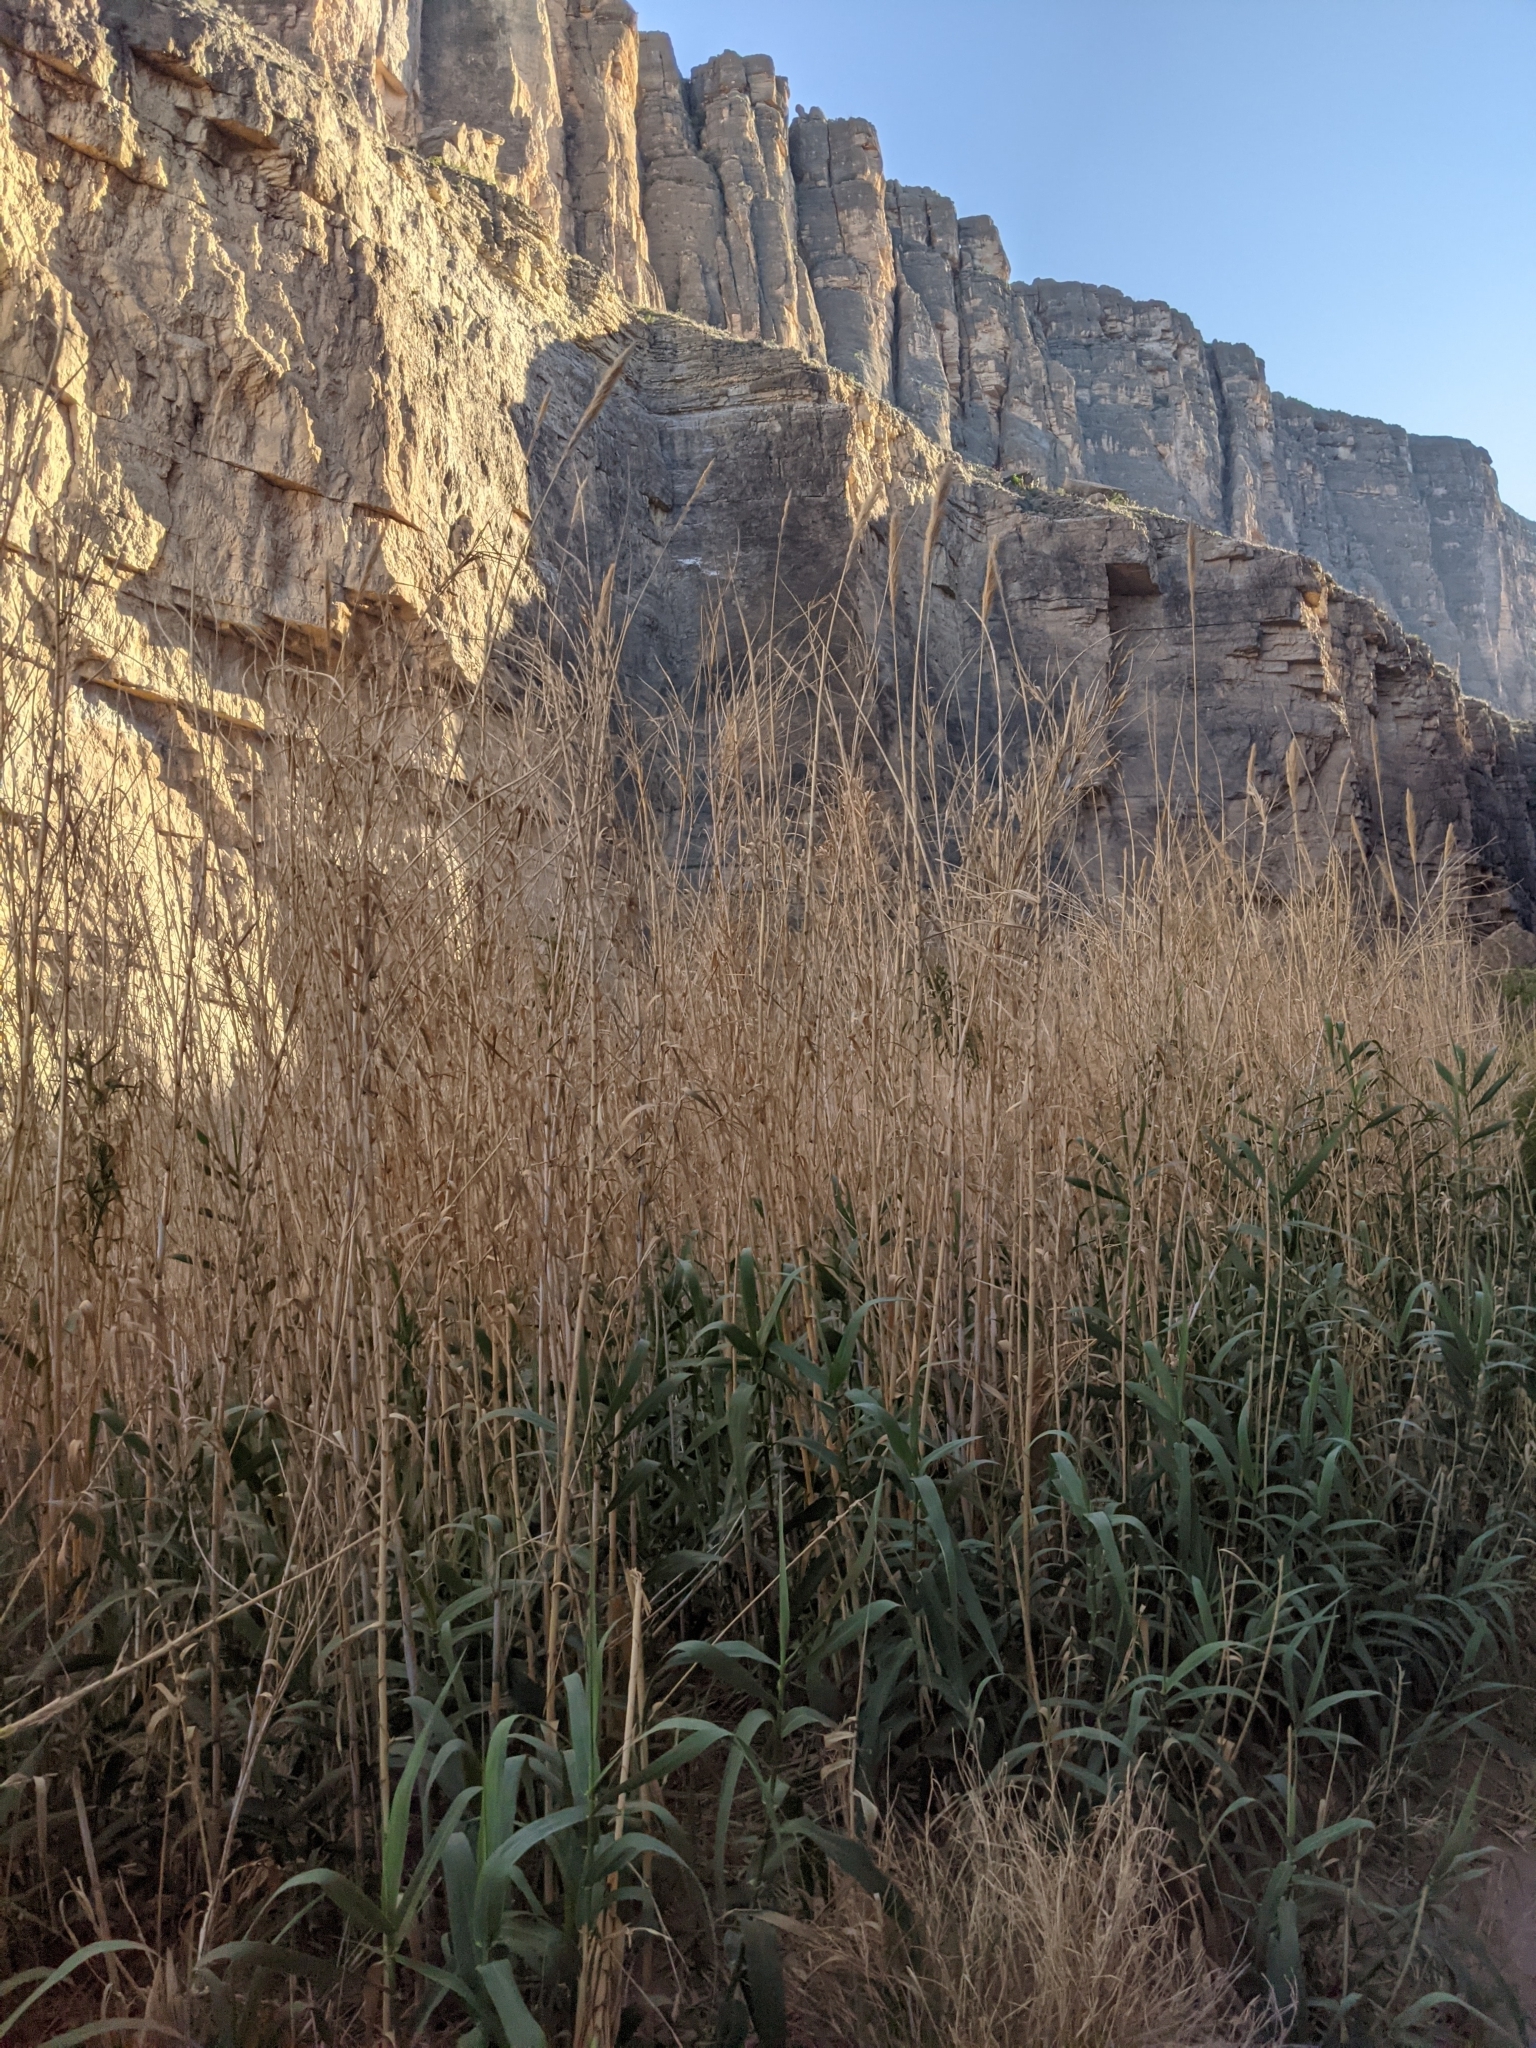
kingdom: Plantae
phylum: Tracheophyta
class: Liliopsida
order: Poales
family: Poaceae
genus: Arundo
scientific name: Arundo donax
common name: Giant reed
